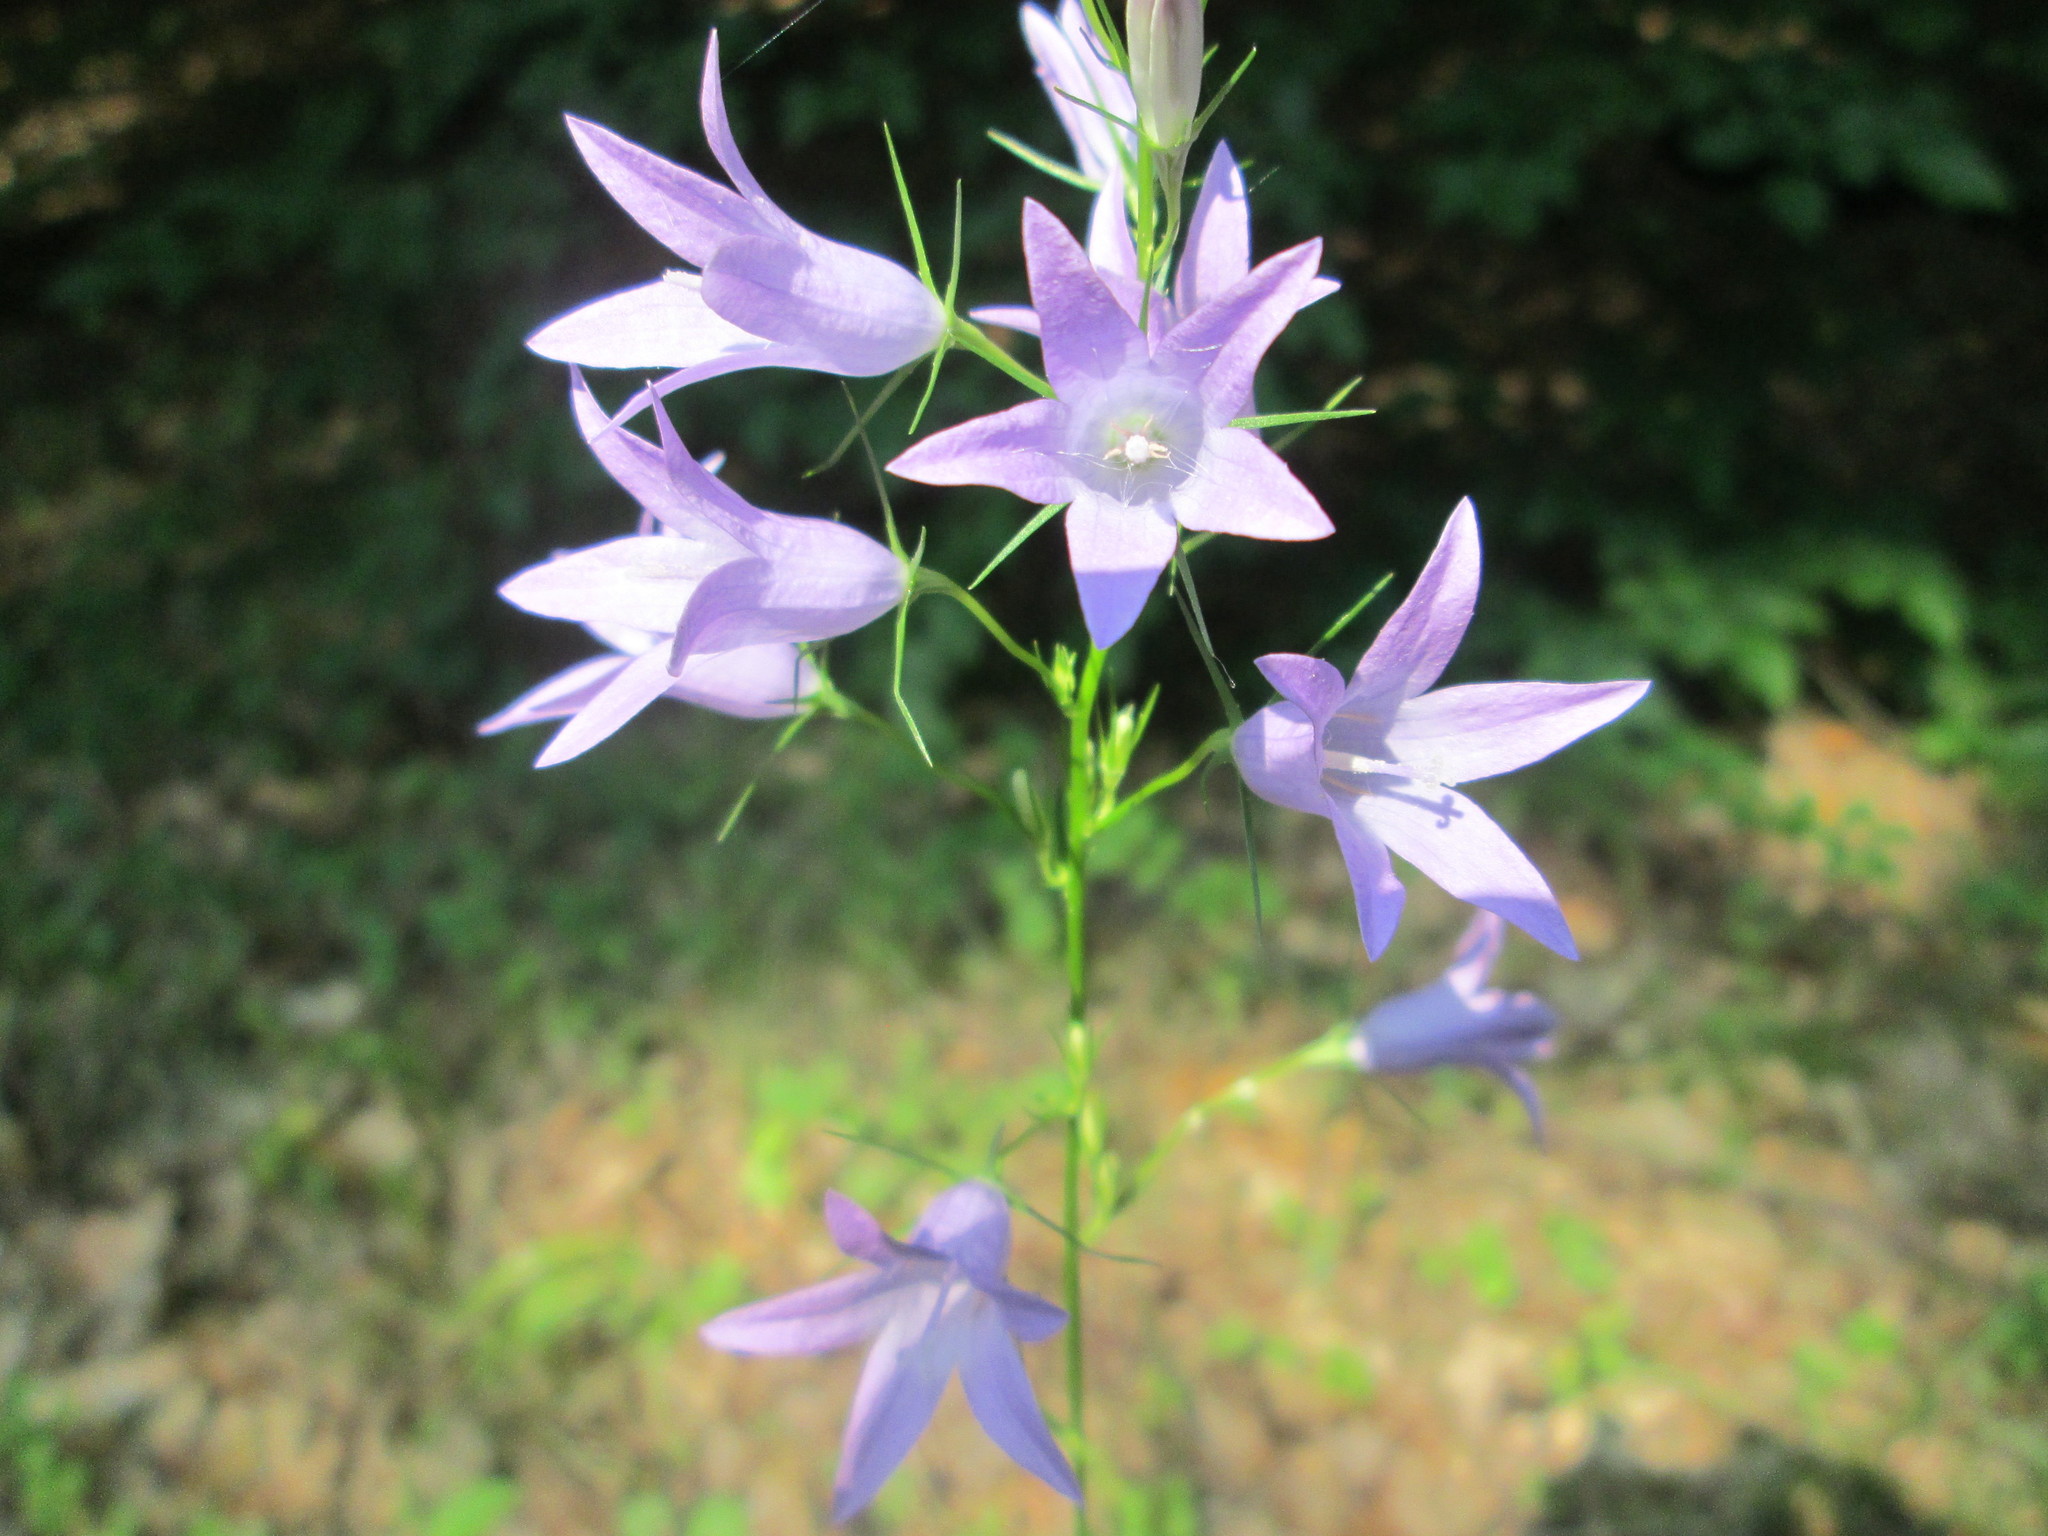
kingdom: Plantae
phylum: Tracheophyta
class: Magnoliopsida
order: Asterales
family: Campanulaceae
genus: Campanula
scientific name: Campanula rapunculus
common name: Rampion bellflower
